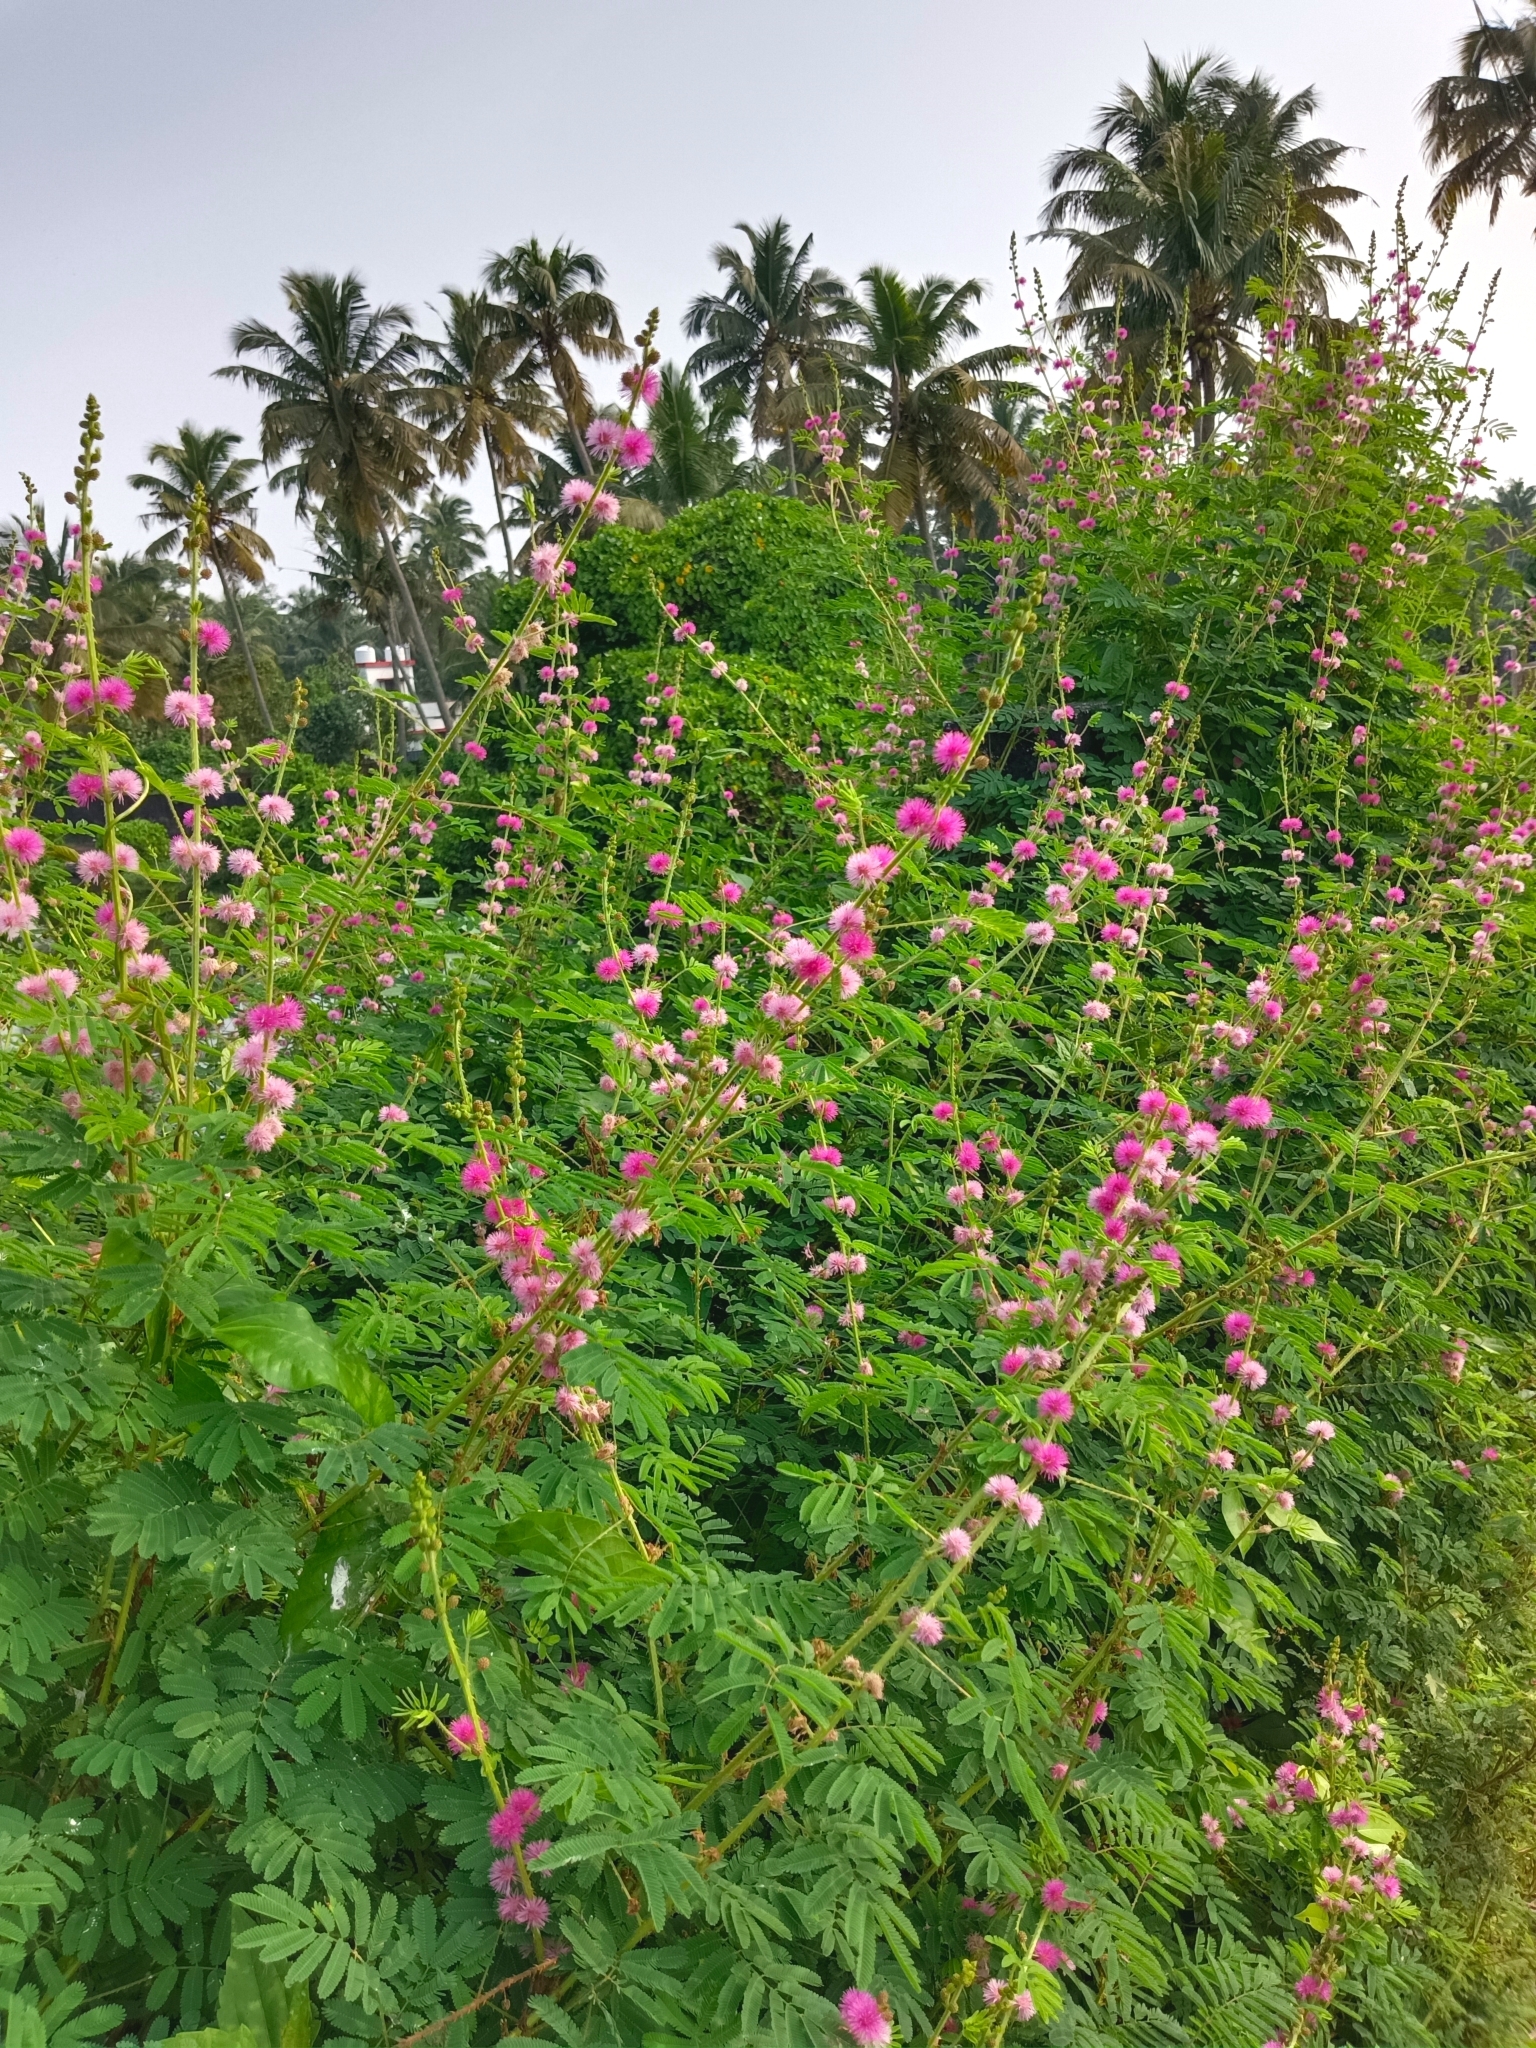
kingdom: Plantae
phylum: Tracheophyta
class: Magnoliopsida
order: Fabales
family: Fabaceae
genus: Mimosa
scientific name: Mimosa diplotricha
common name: Giant sensitive-plant
